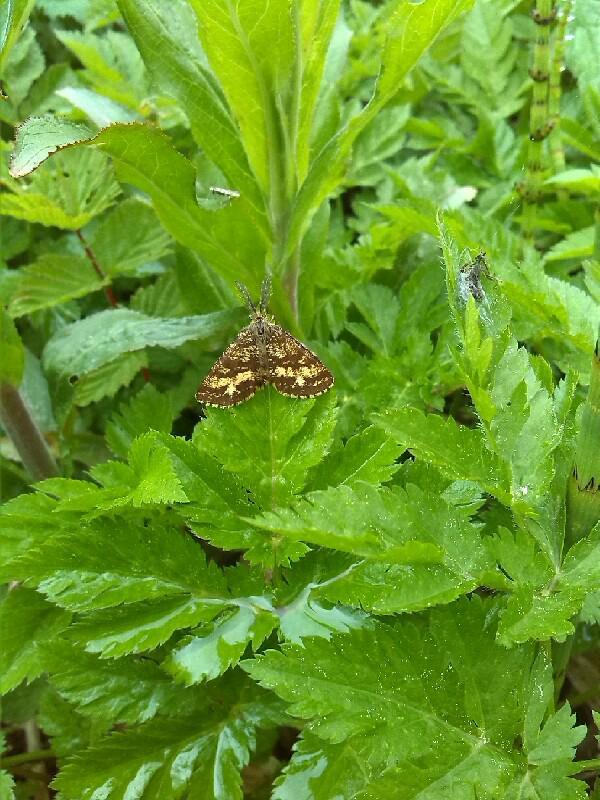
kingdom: Animalia
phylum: Arthropoda
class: Insecta
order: Lepidoptera
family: Geometridae
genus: Ematurga
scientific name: Ematurga atomaria
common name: Common heath
